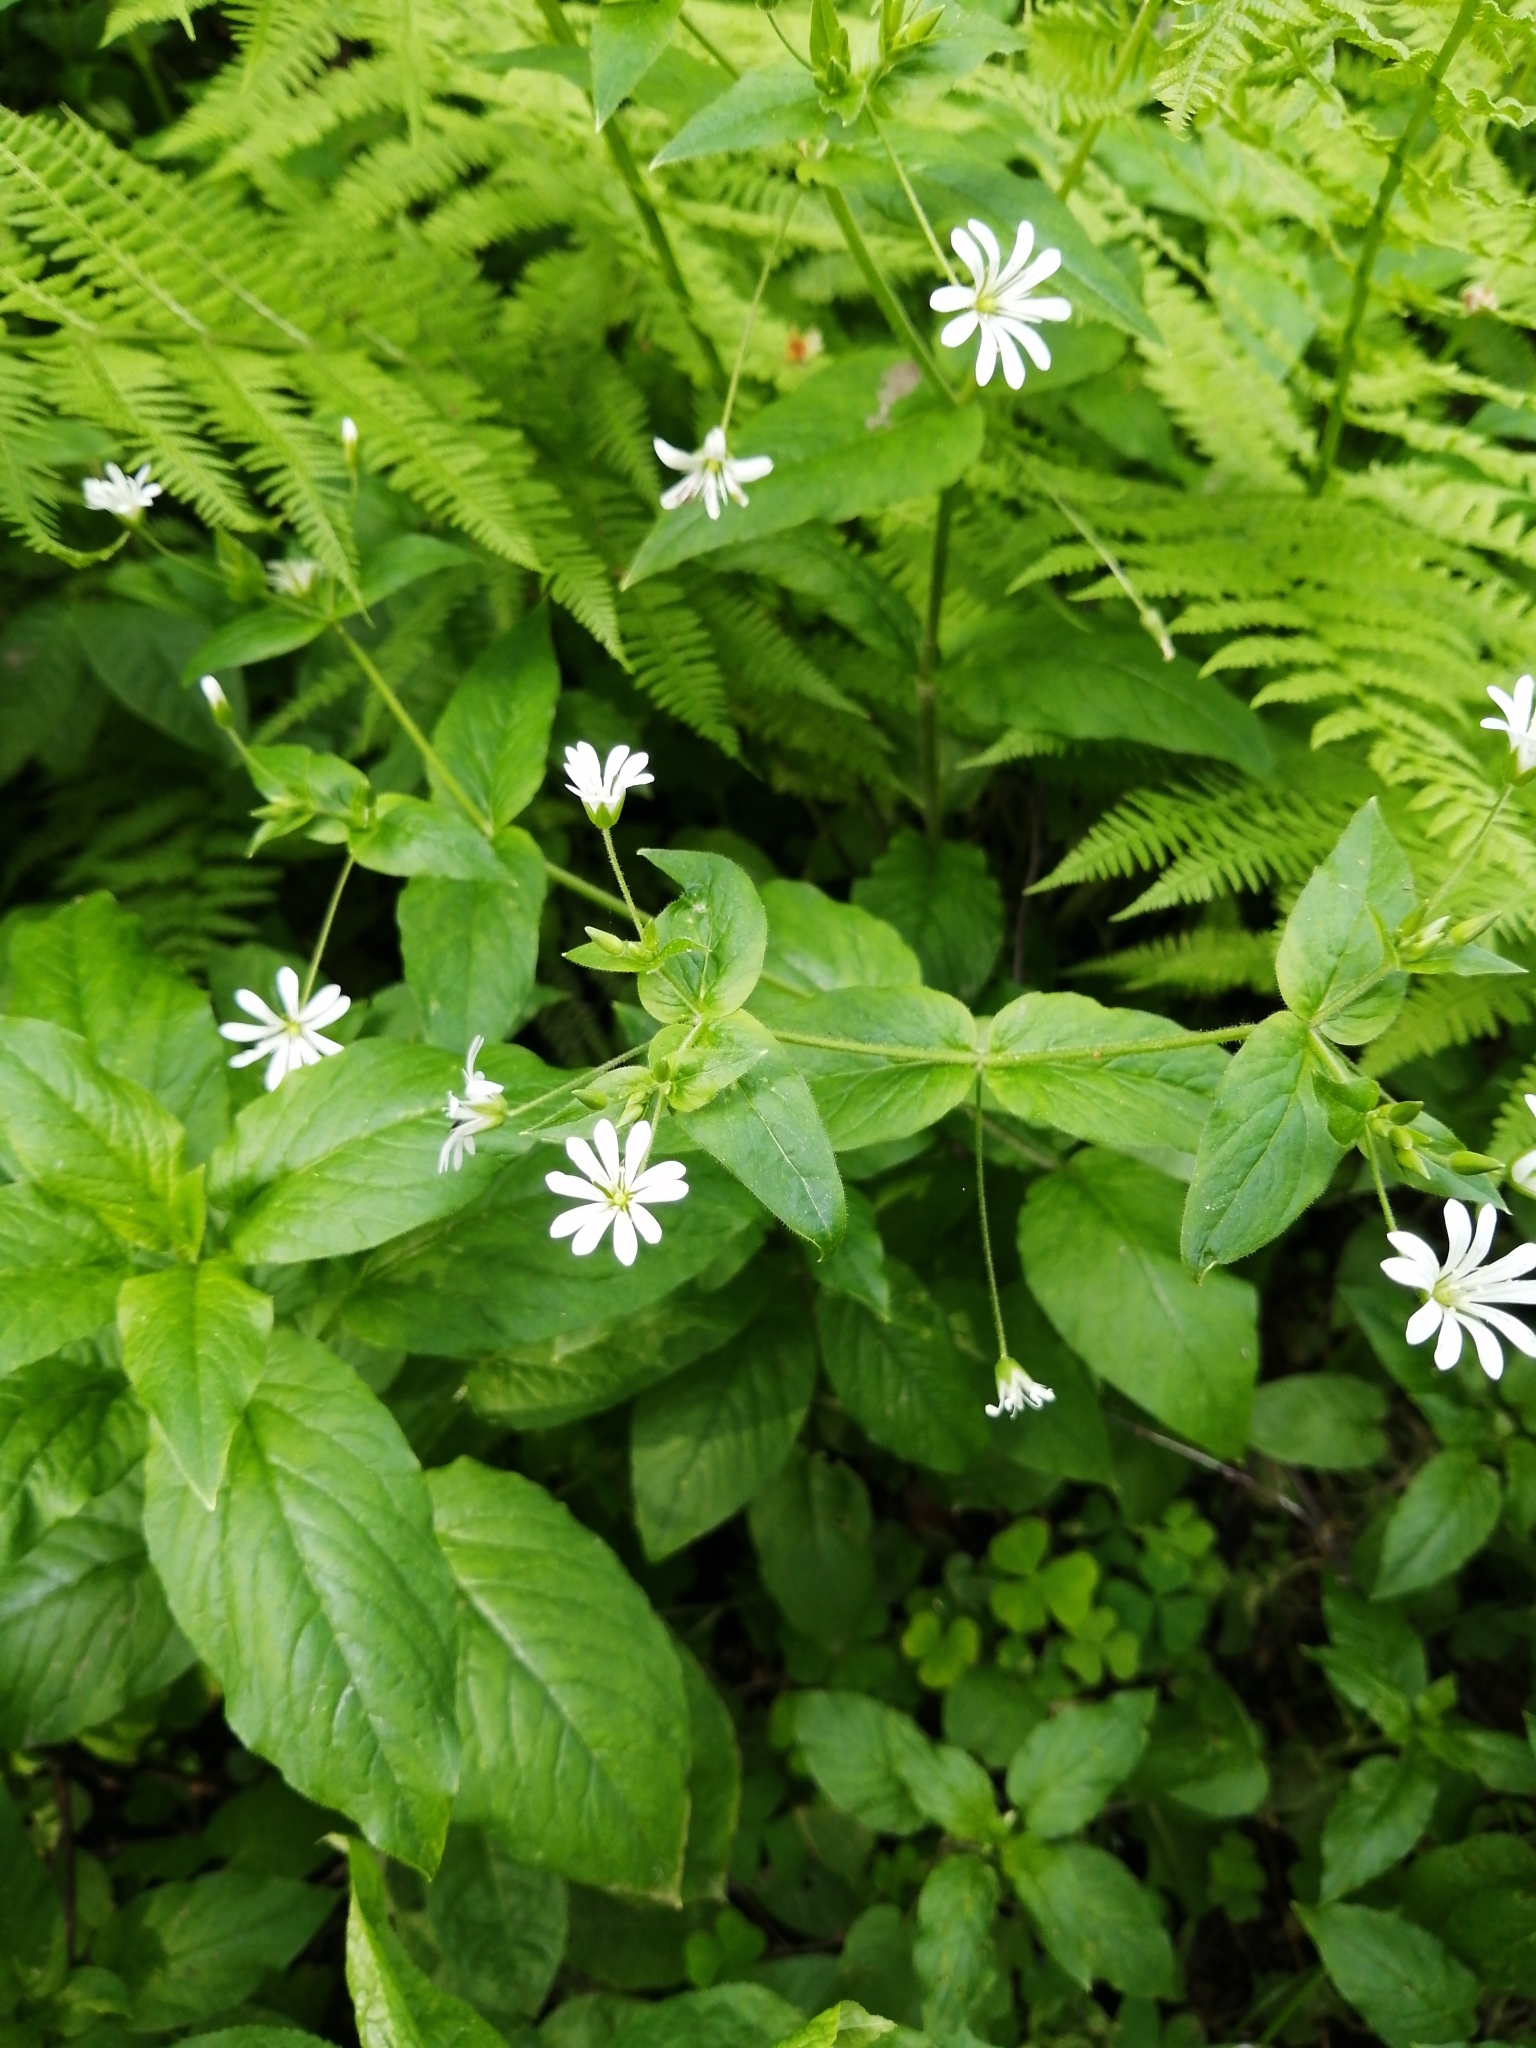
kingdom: Plantae
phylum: Tracheophyta
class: Magnoliopsida
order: Caryophyllales
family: Caryophyllaceae
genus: Stellaria
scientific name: Stellaria nemorum
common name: Wood stitchwort
